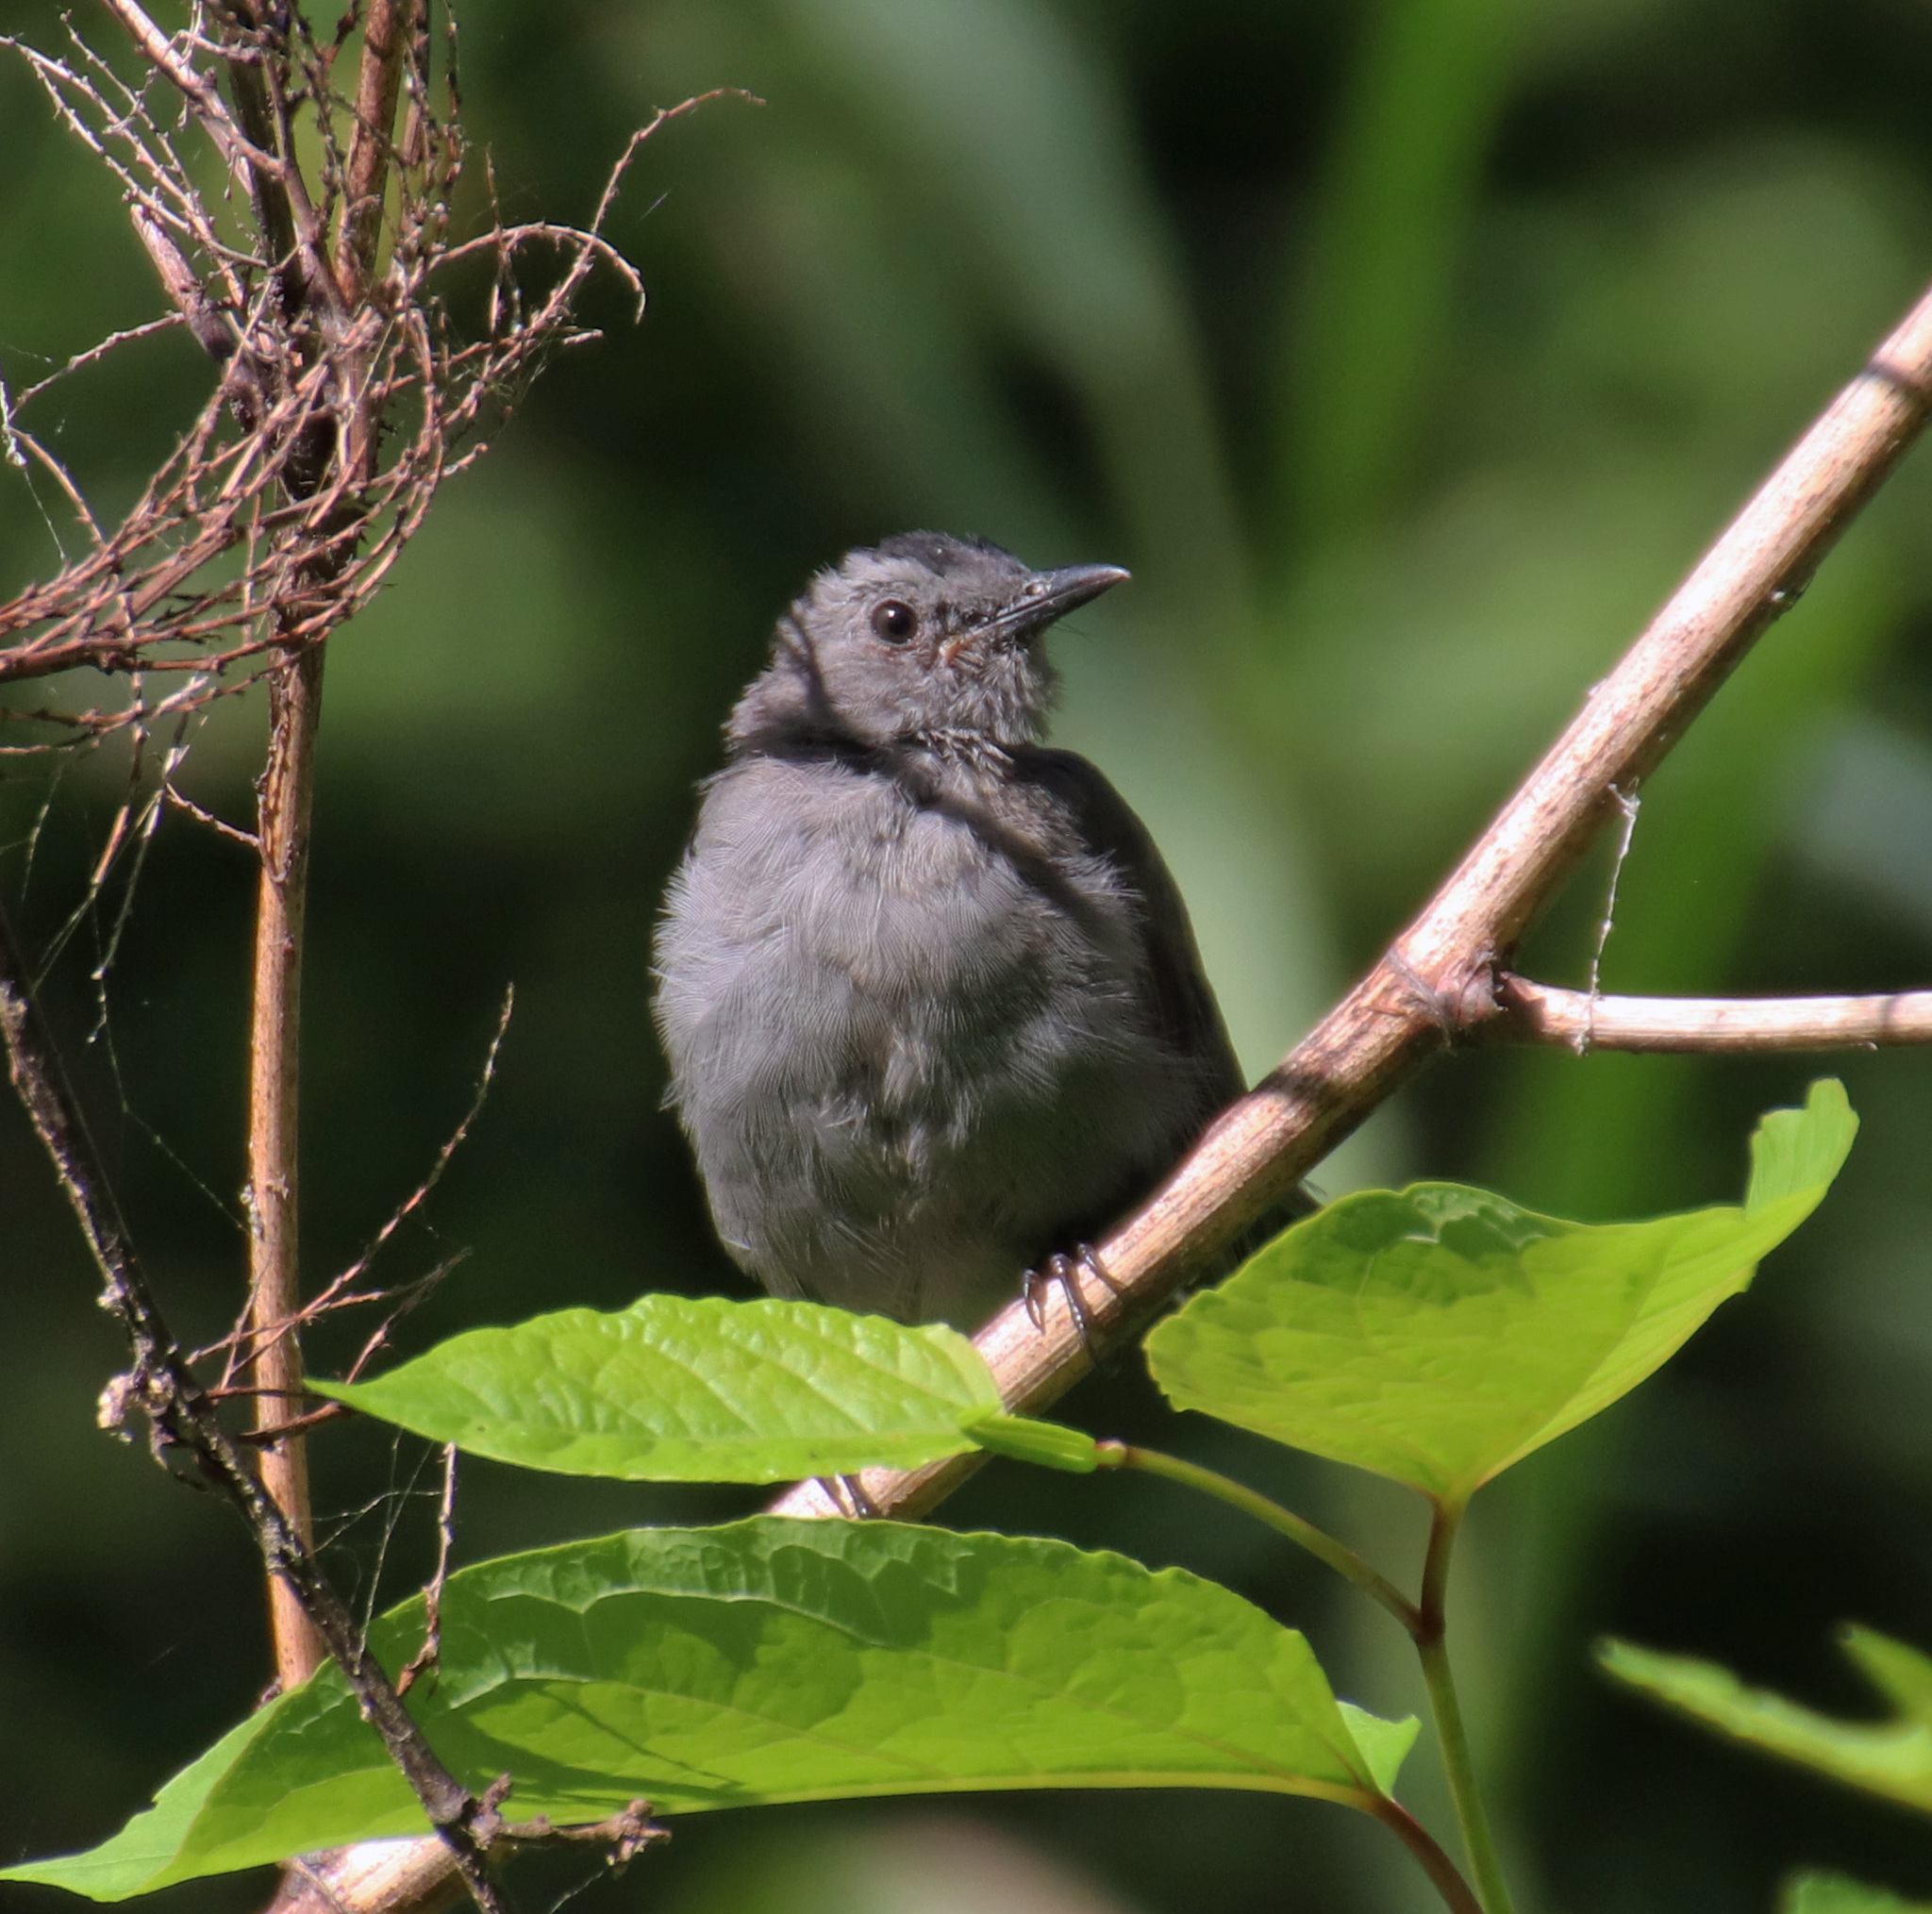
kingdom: Animalia
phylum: Chordata
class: Aves
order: Passeriformes
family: Mimidae
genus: Dumetella
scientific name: Dumetella carolinensis
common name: Gray catbird
